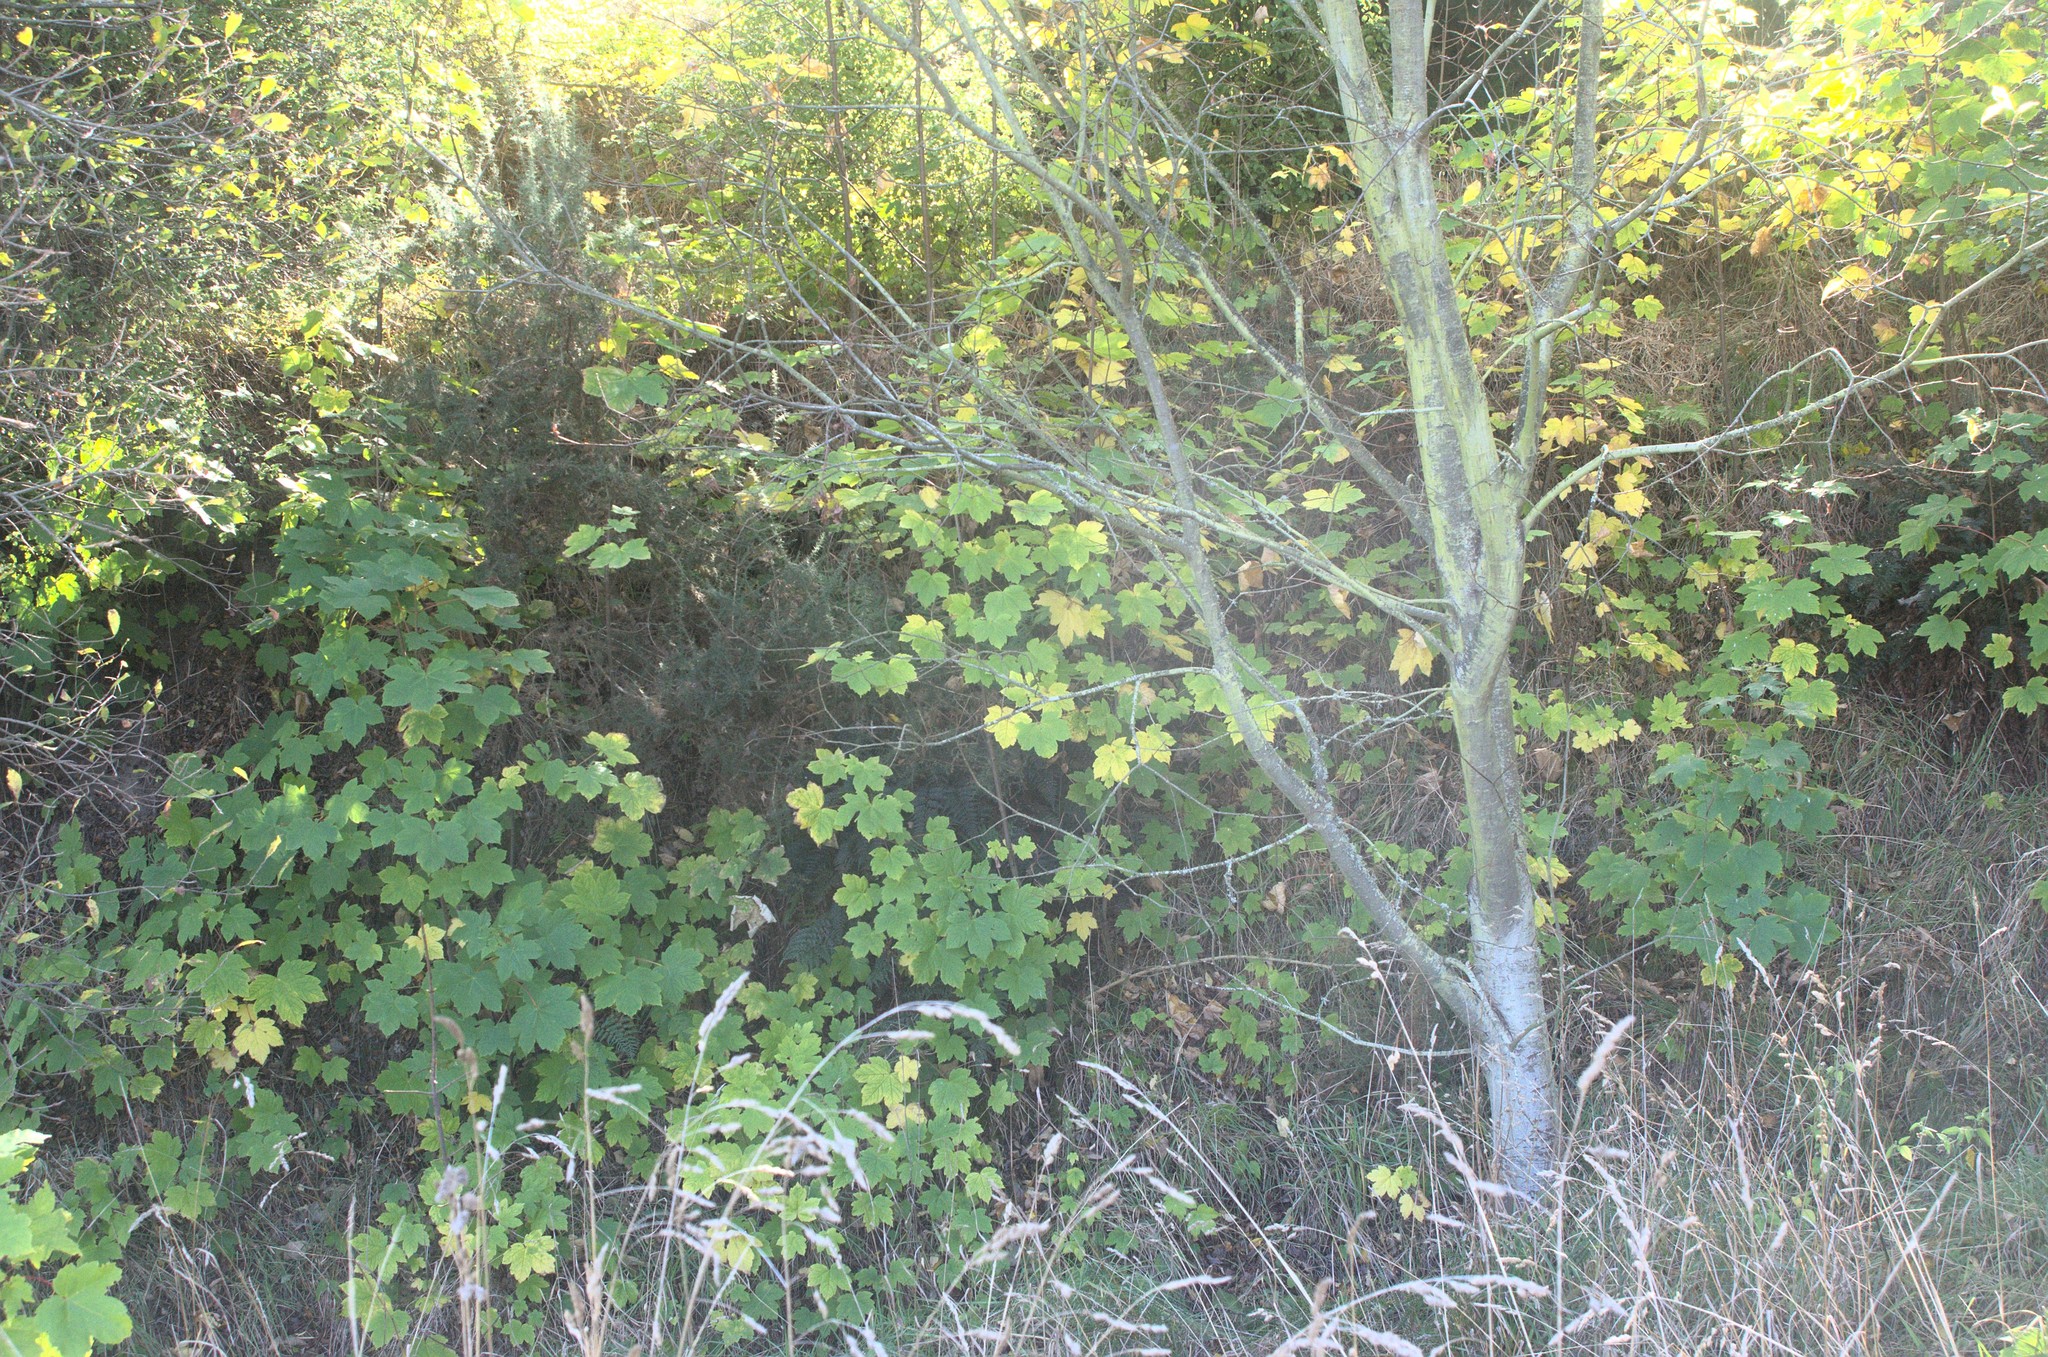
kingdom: Plantae
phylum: Tracheophyta
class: Magnoliopsida
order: Sapindales
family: Sapindaceae
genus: Acer
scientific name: Acer pseudoplatanus
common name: Sycamore
